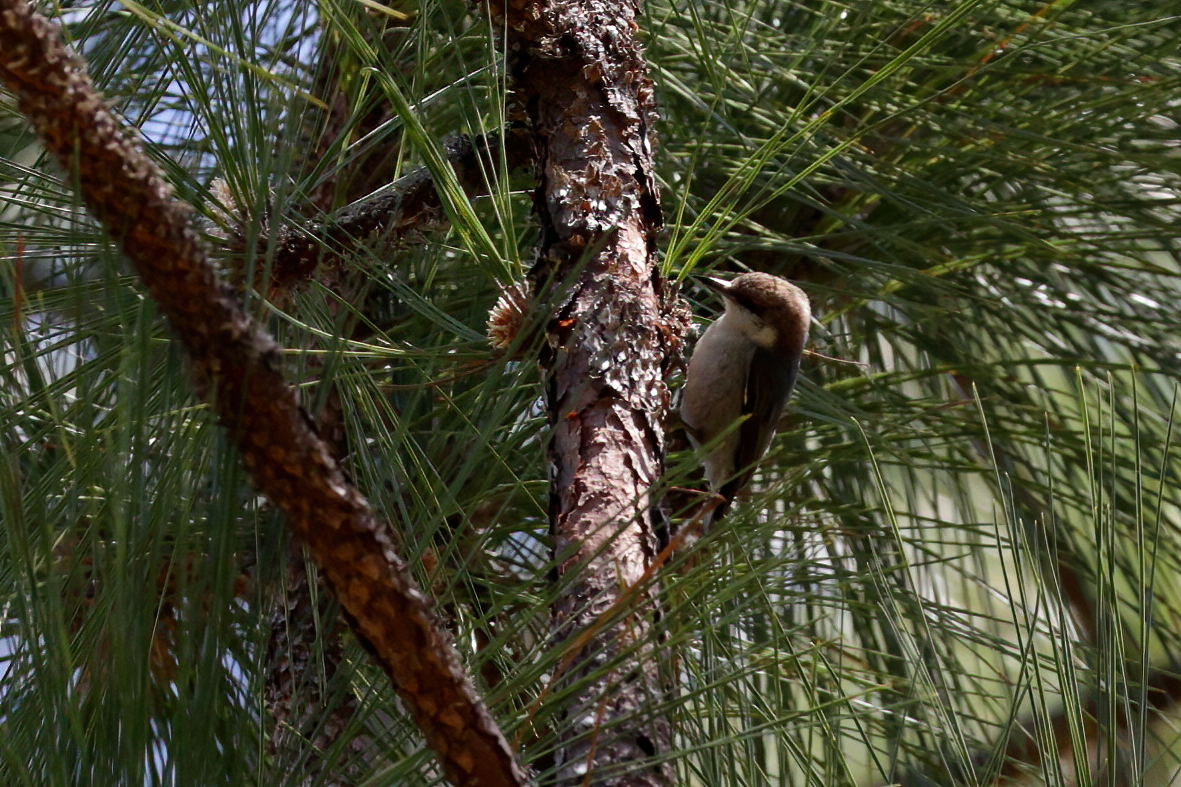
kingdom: Animalia
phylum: Chordata
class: Aves
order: Passeriformes
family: Sittidae
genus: Sitta
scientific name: Sitta pusilla
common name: Brown-headed nuthatch
